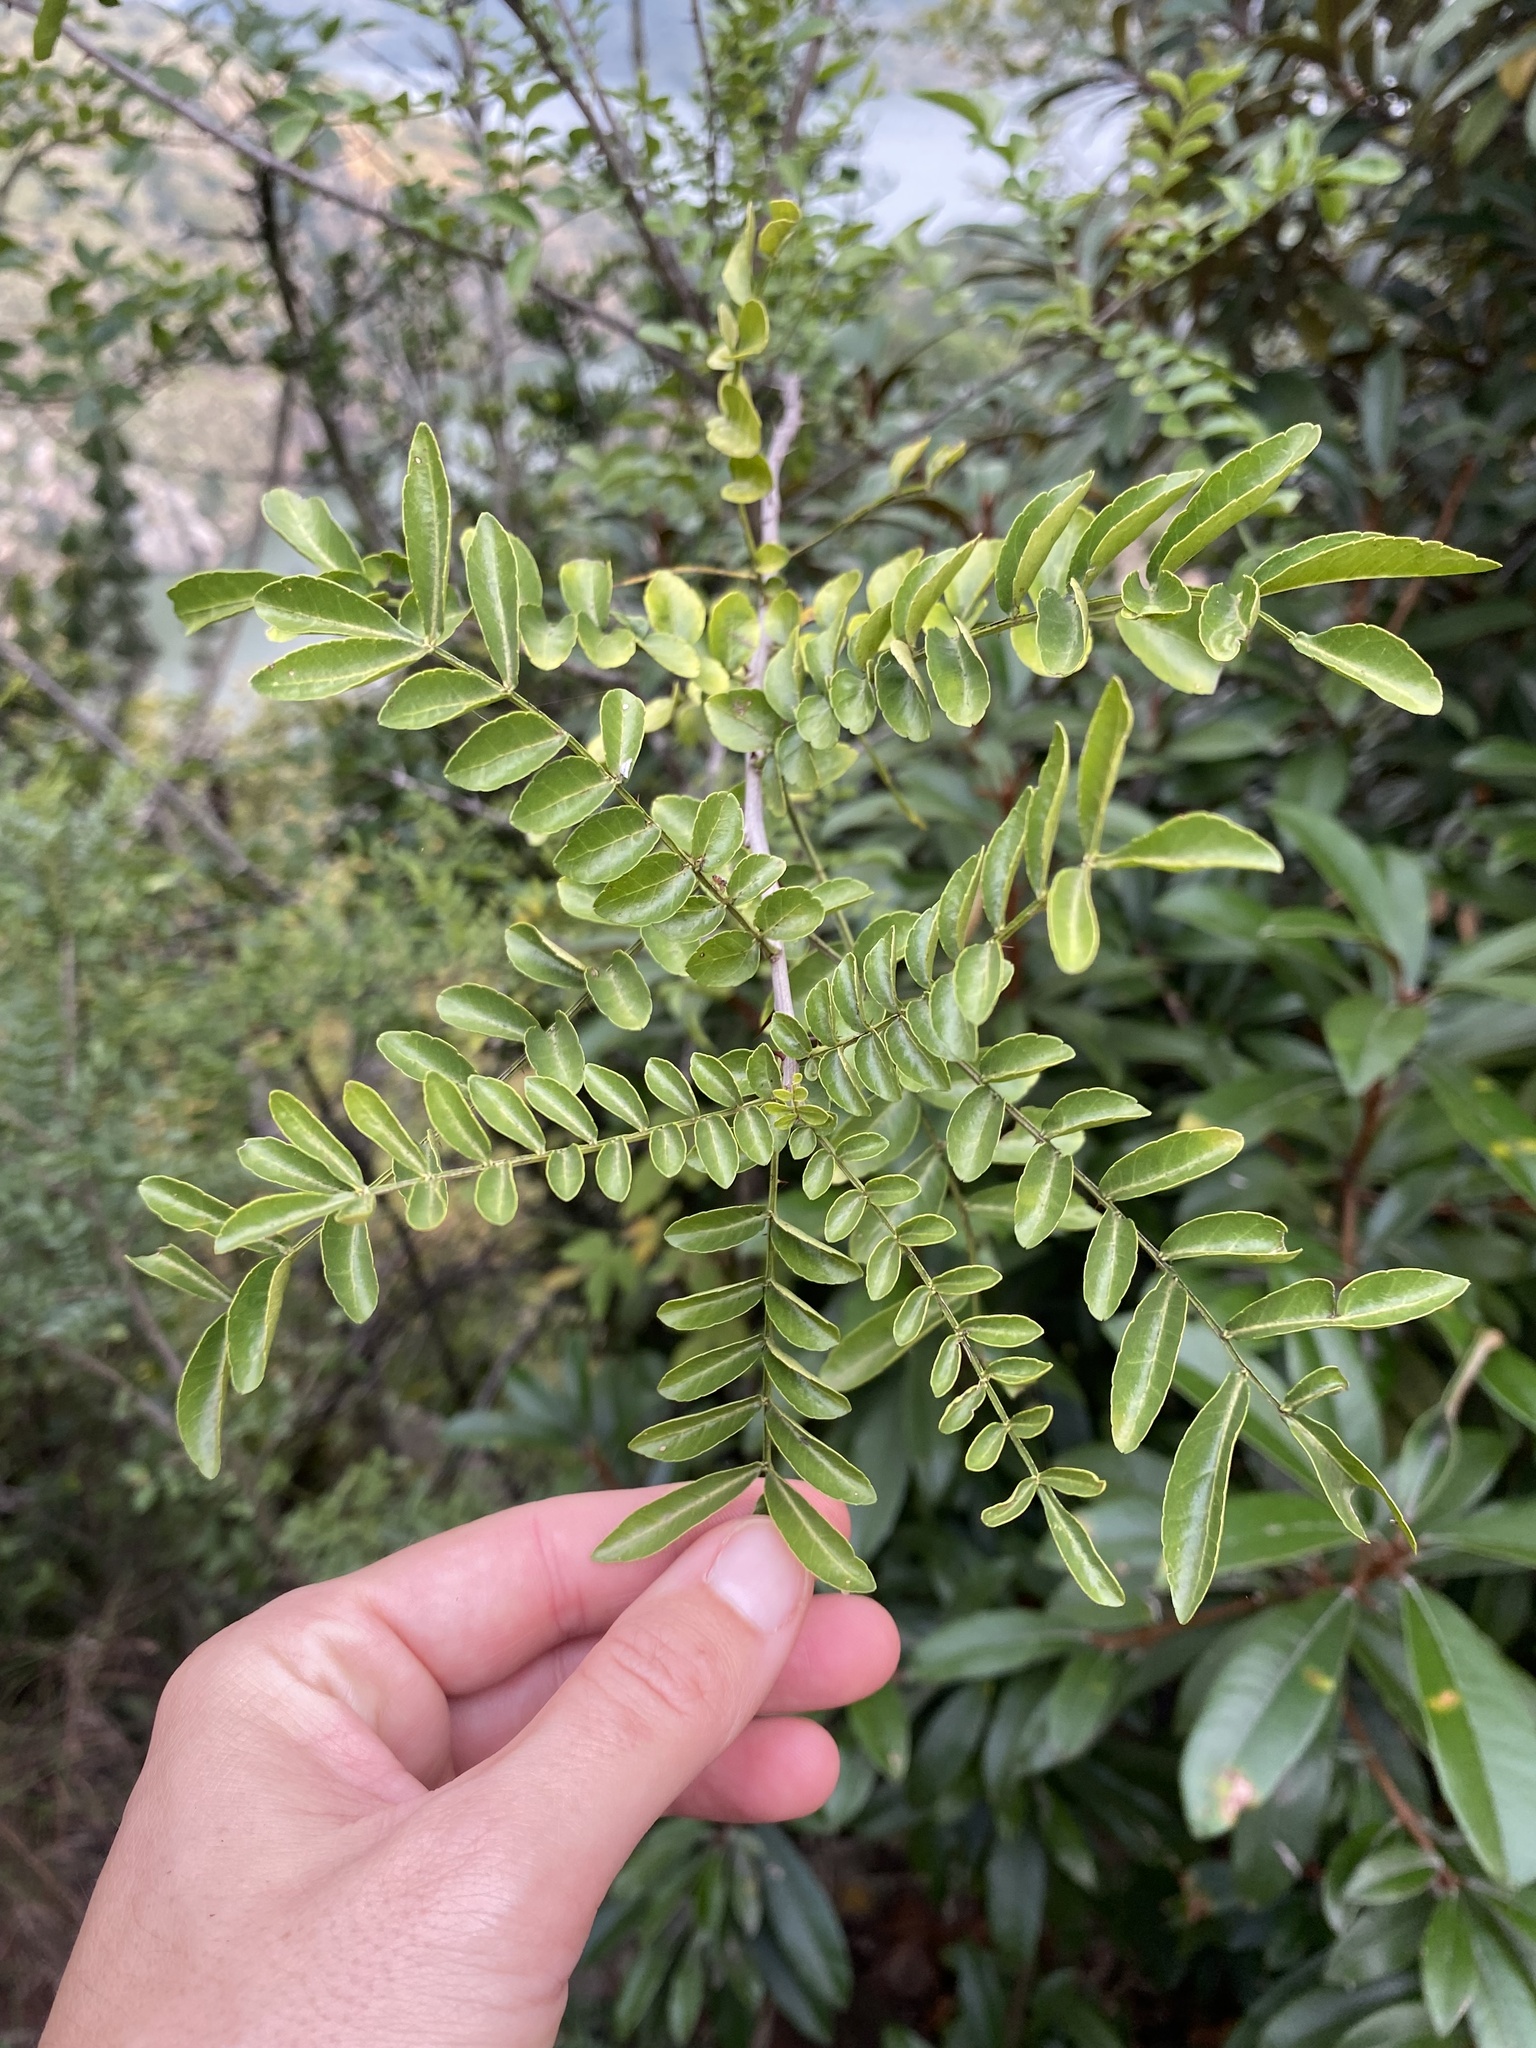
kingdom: Plantae
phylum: Tracheophyta
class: Magnoliopsida
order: Sapindales
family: Rutaceae
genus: Zanthoxylum
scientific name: Zanthoxylum capense
